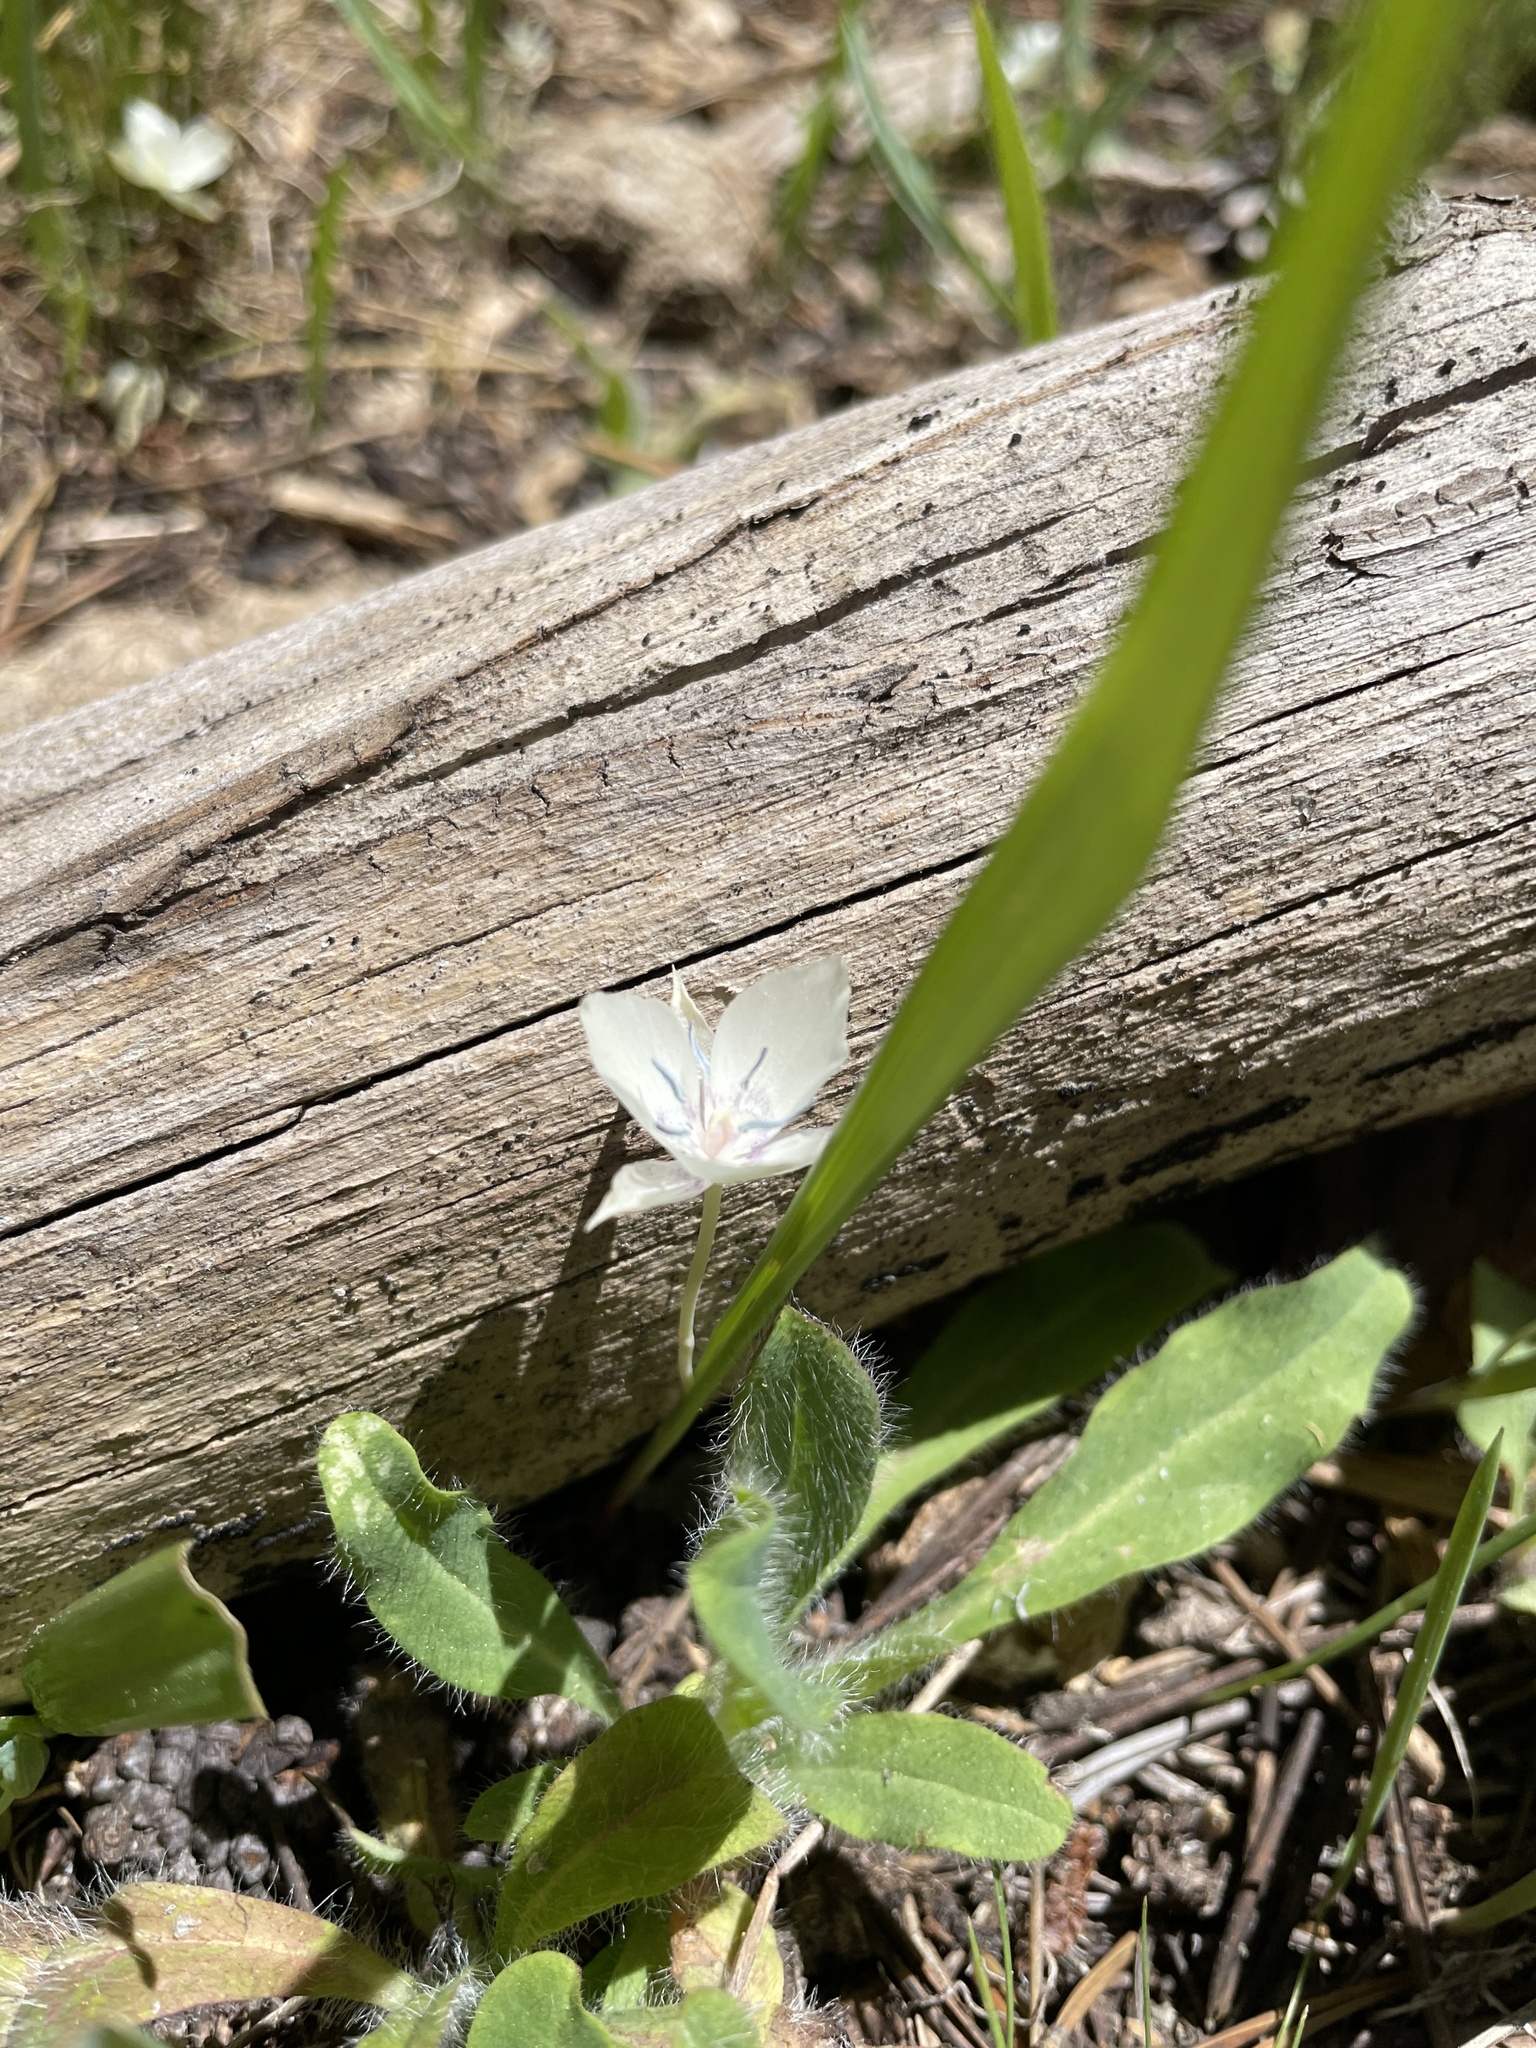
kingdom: Plantae
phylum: Tracheophyta
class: Liliopsida
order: Liliales
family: Liliaceae
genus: Calochortus
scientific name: Calochortus minimus
